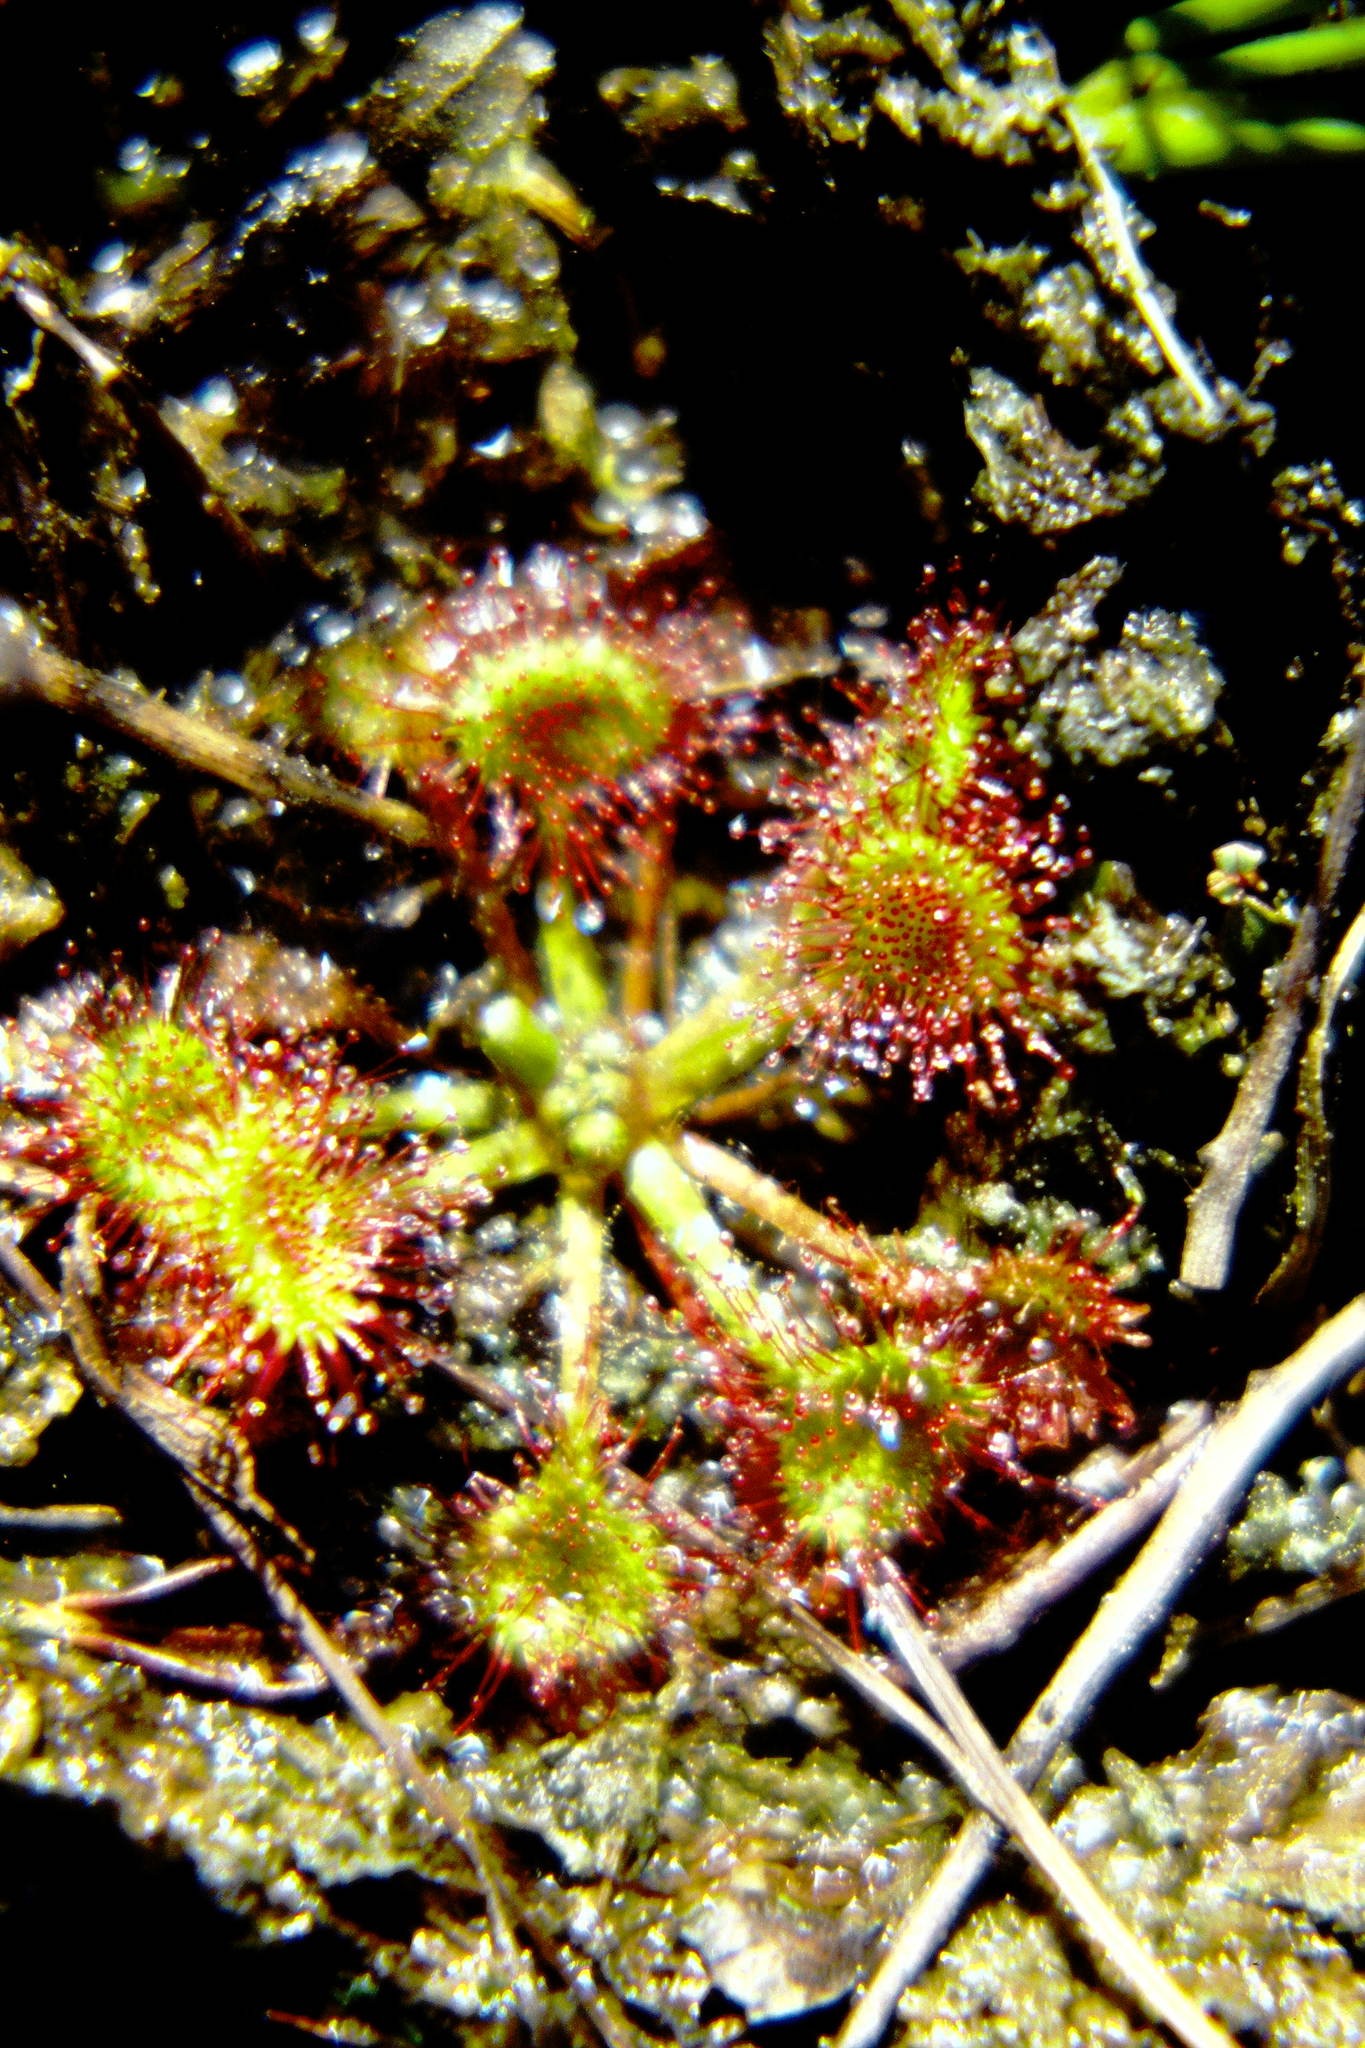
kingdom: Plantae
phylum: Tracheophyta
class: Magnoliopsida
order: Caryophyllales
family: Droseraceae
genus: Drosera
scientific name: Drosera rotundifolia
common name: Round-leaved sundew
